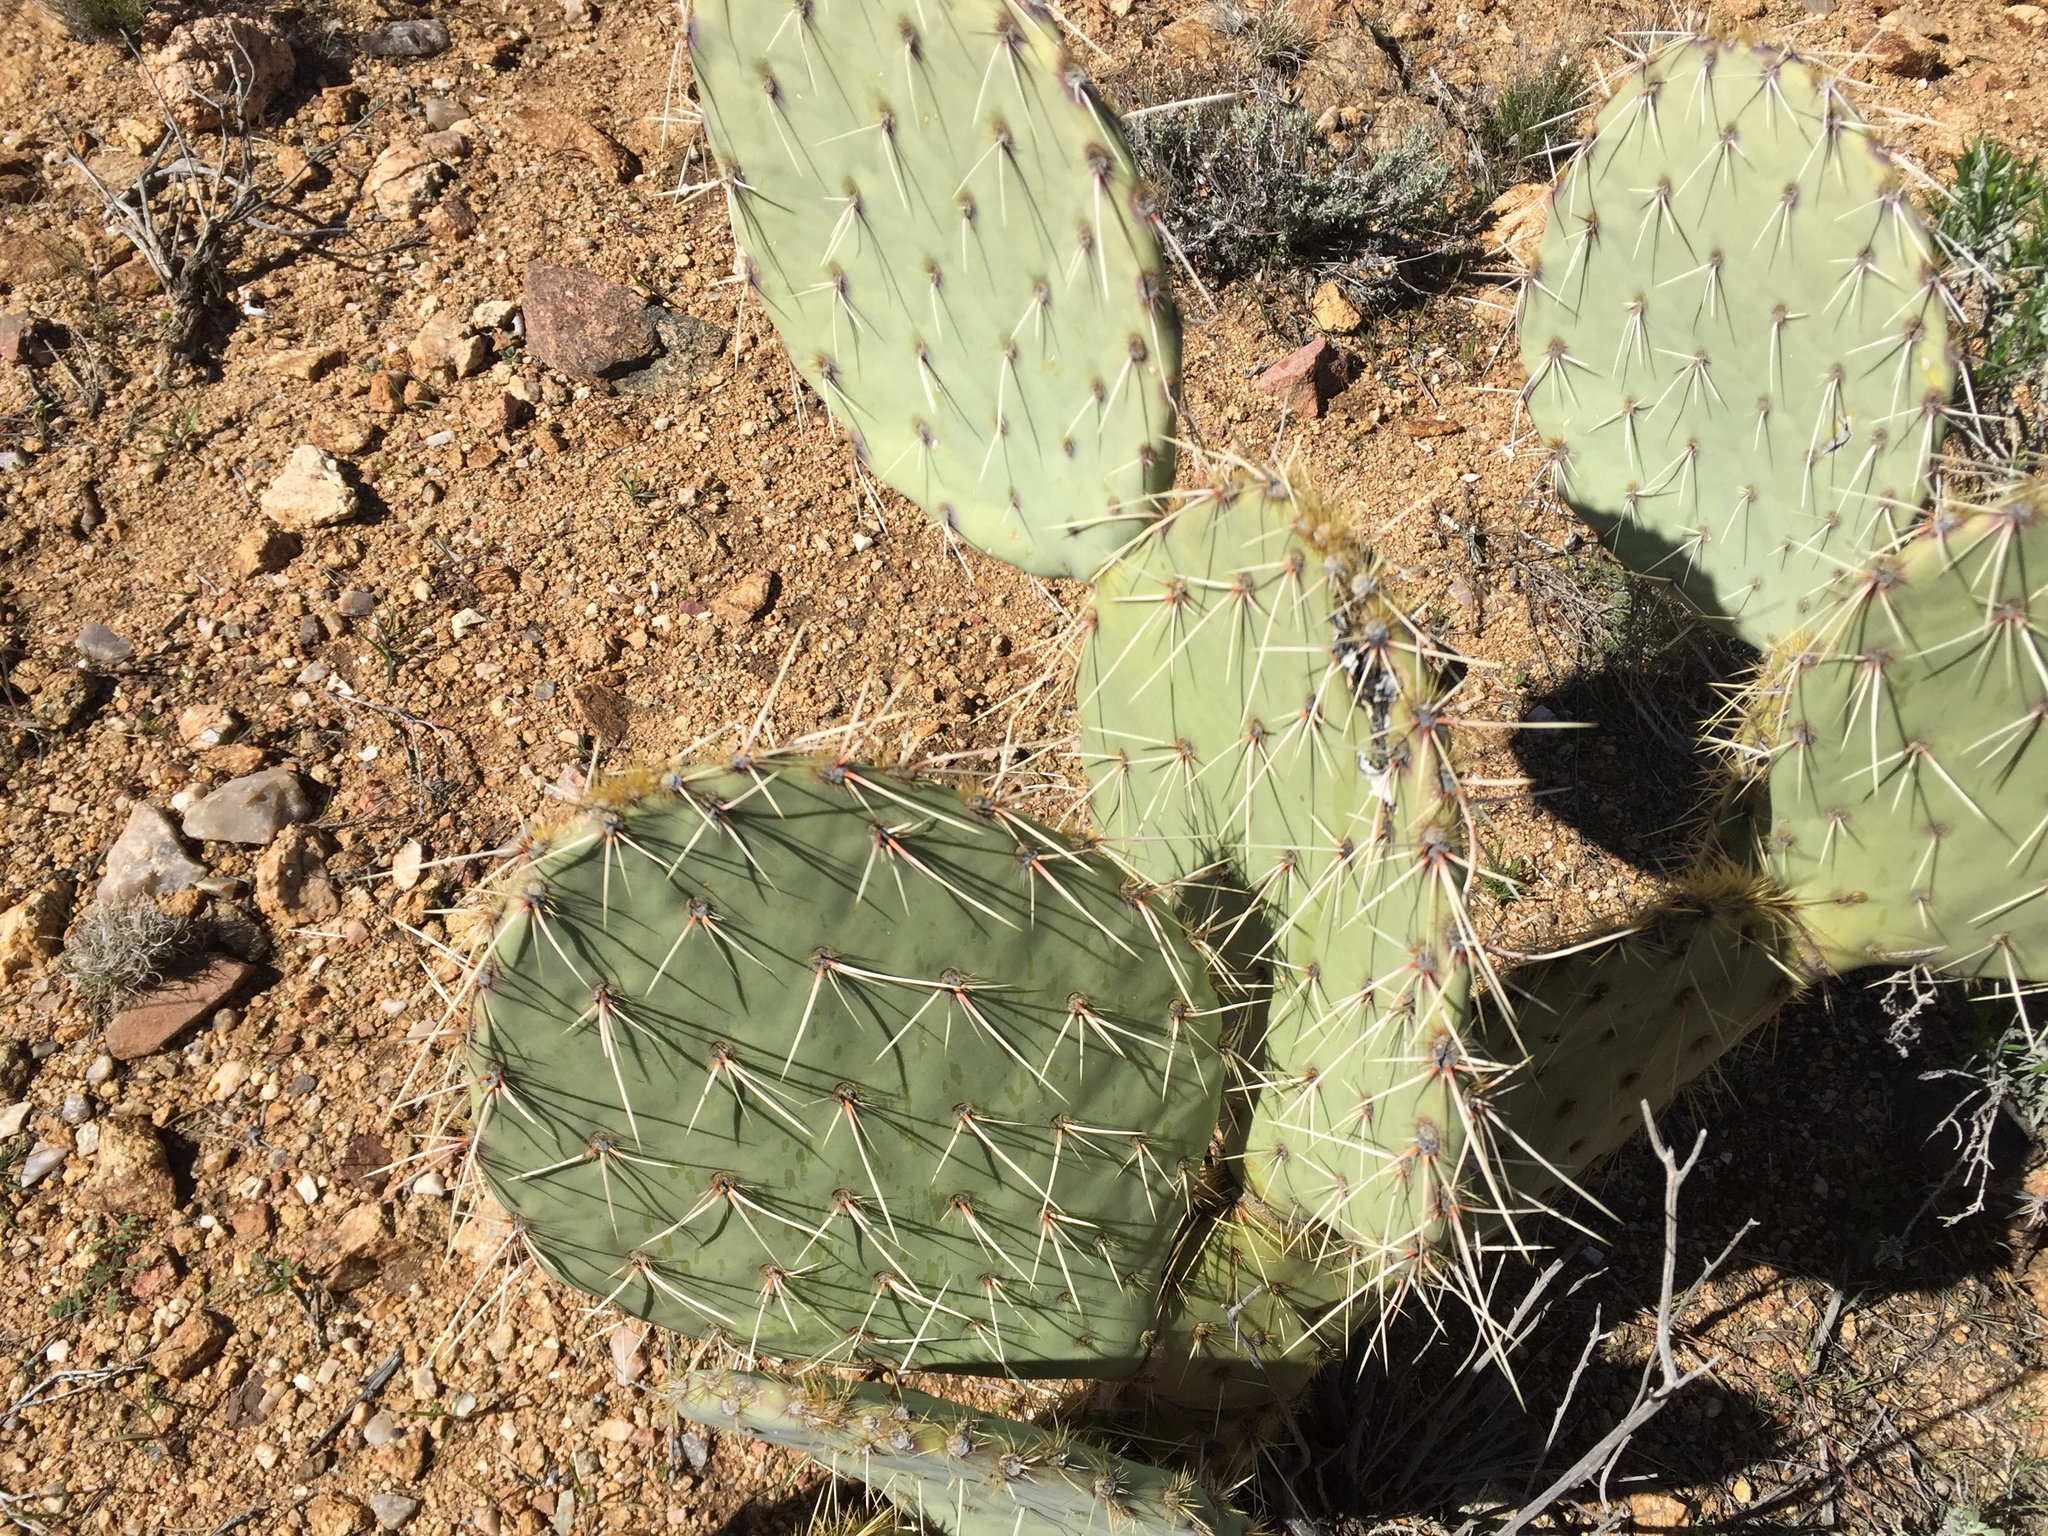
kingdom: Plantae
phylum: Tracheophyta
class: Magnoliopsida
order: Caryophyllales
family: Cactaceae
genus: Opuntia
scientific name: Opuntia engelmannii
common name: Cactus-apple
